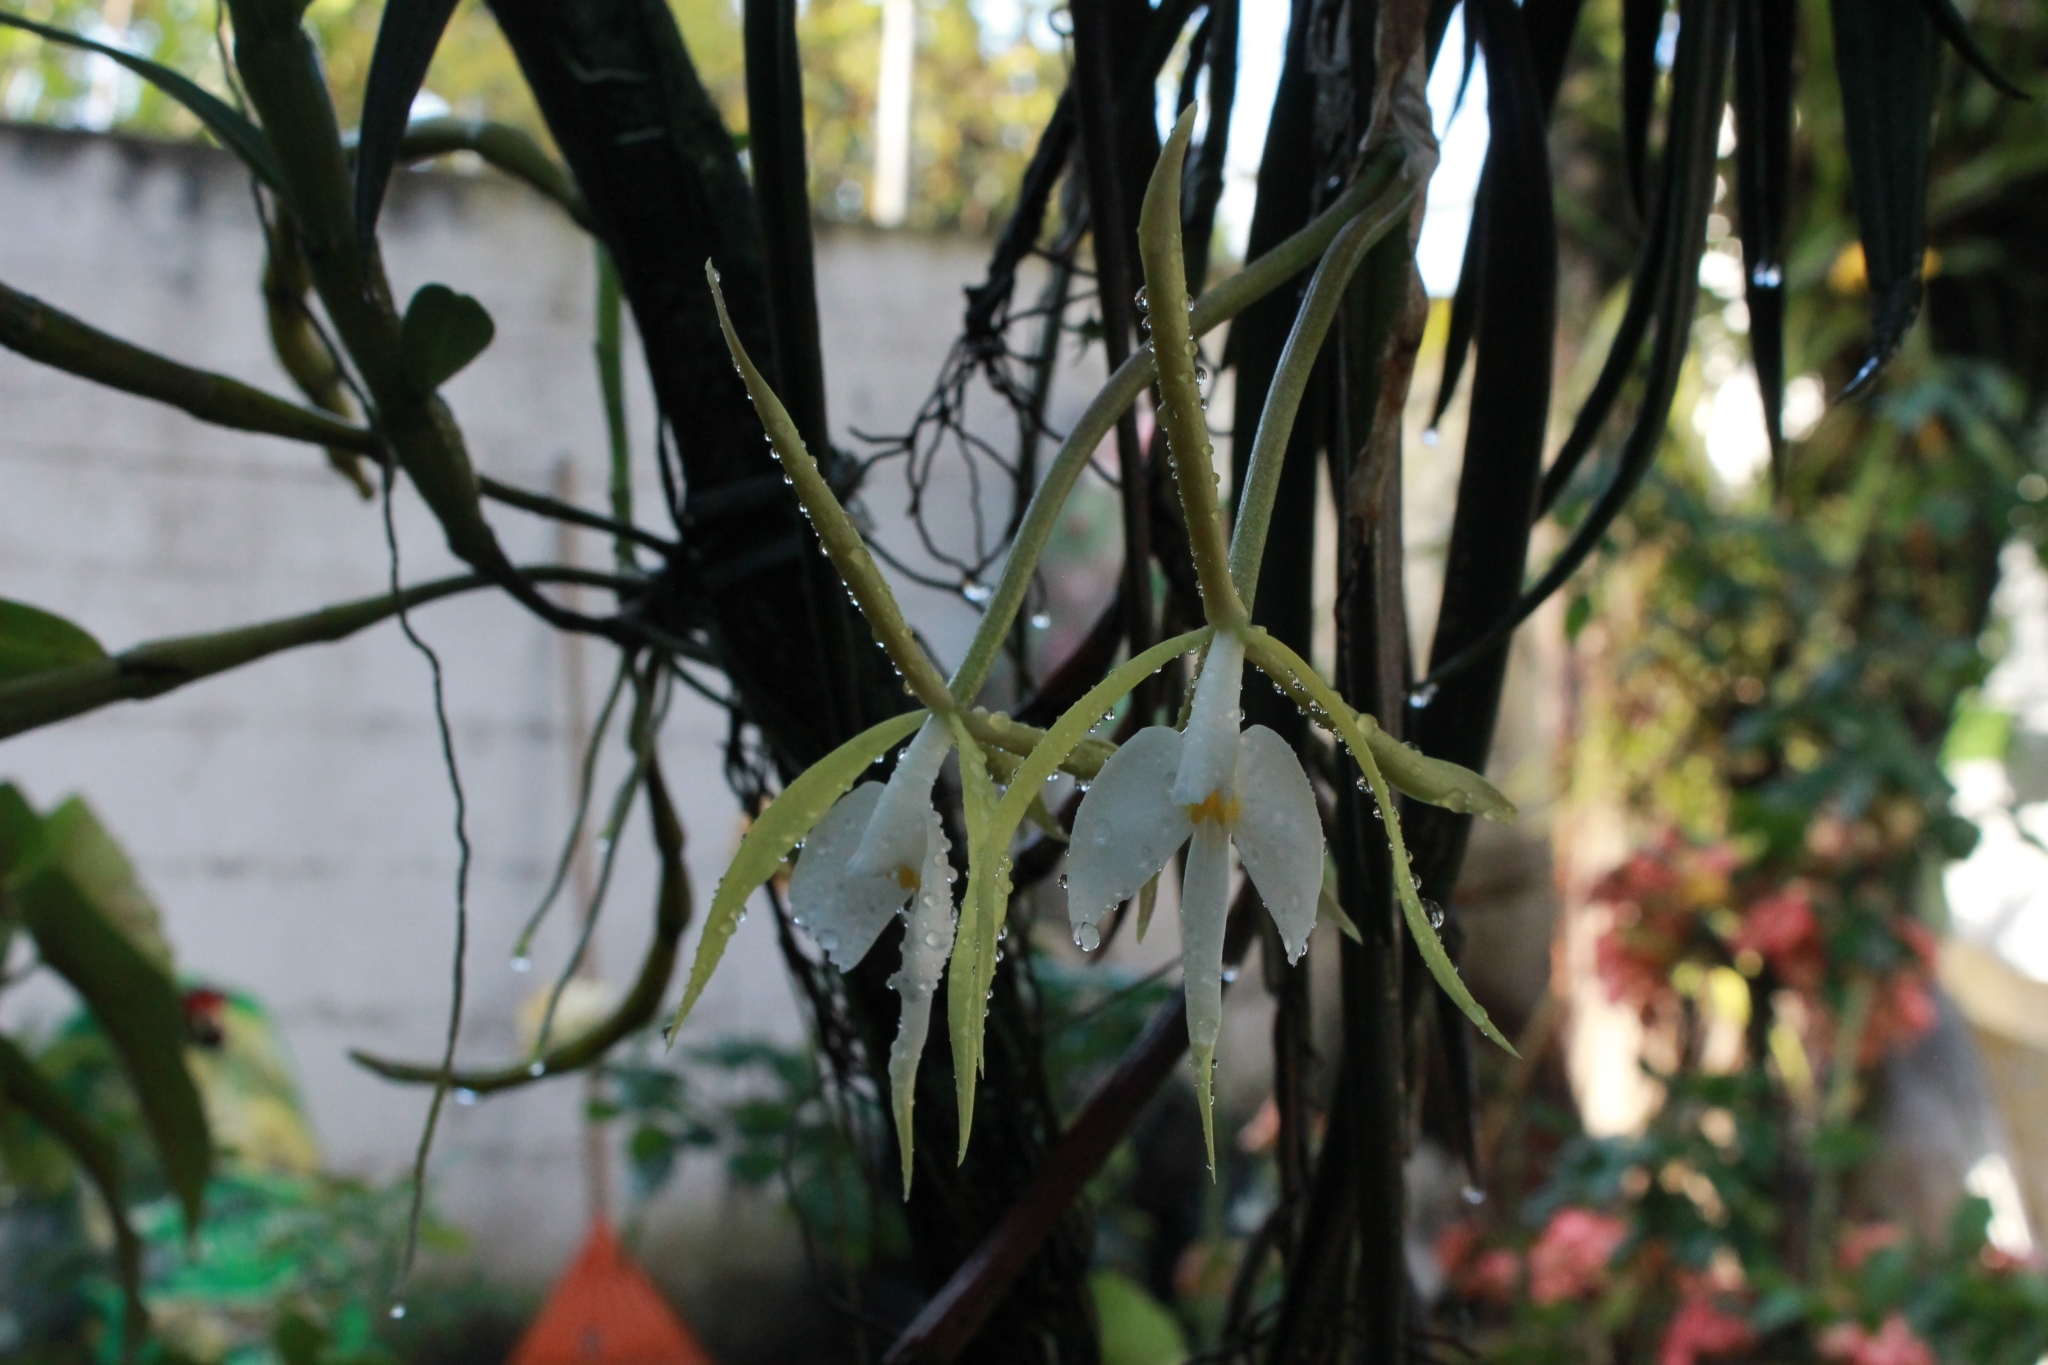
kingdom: Plantae
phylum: Tracheophyta
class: Liliopsida
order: Asparagales
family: Orchidaceae
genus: Epidendrum
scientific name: Epidendrum parkinsonianum
